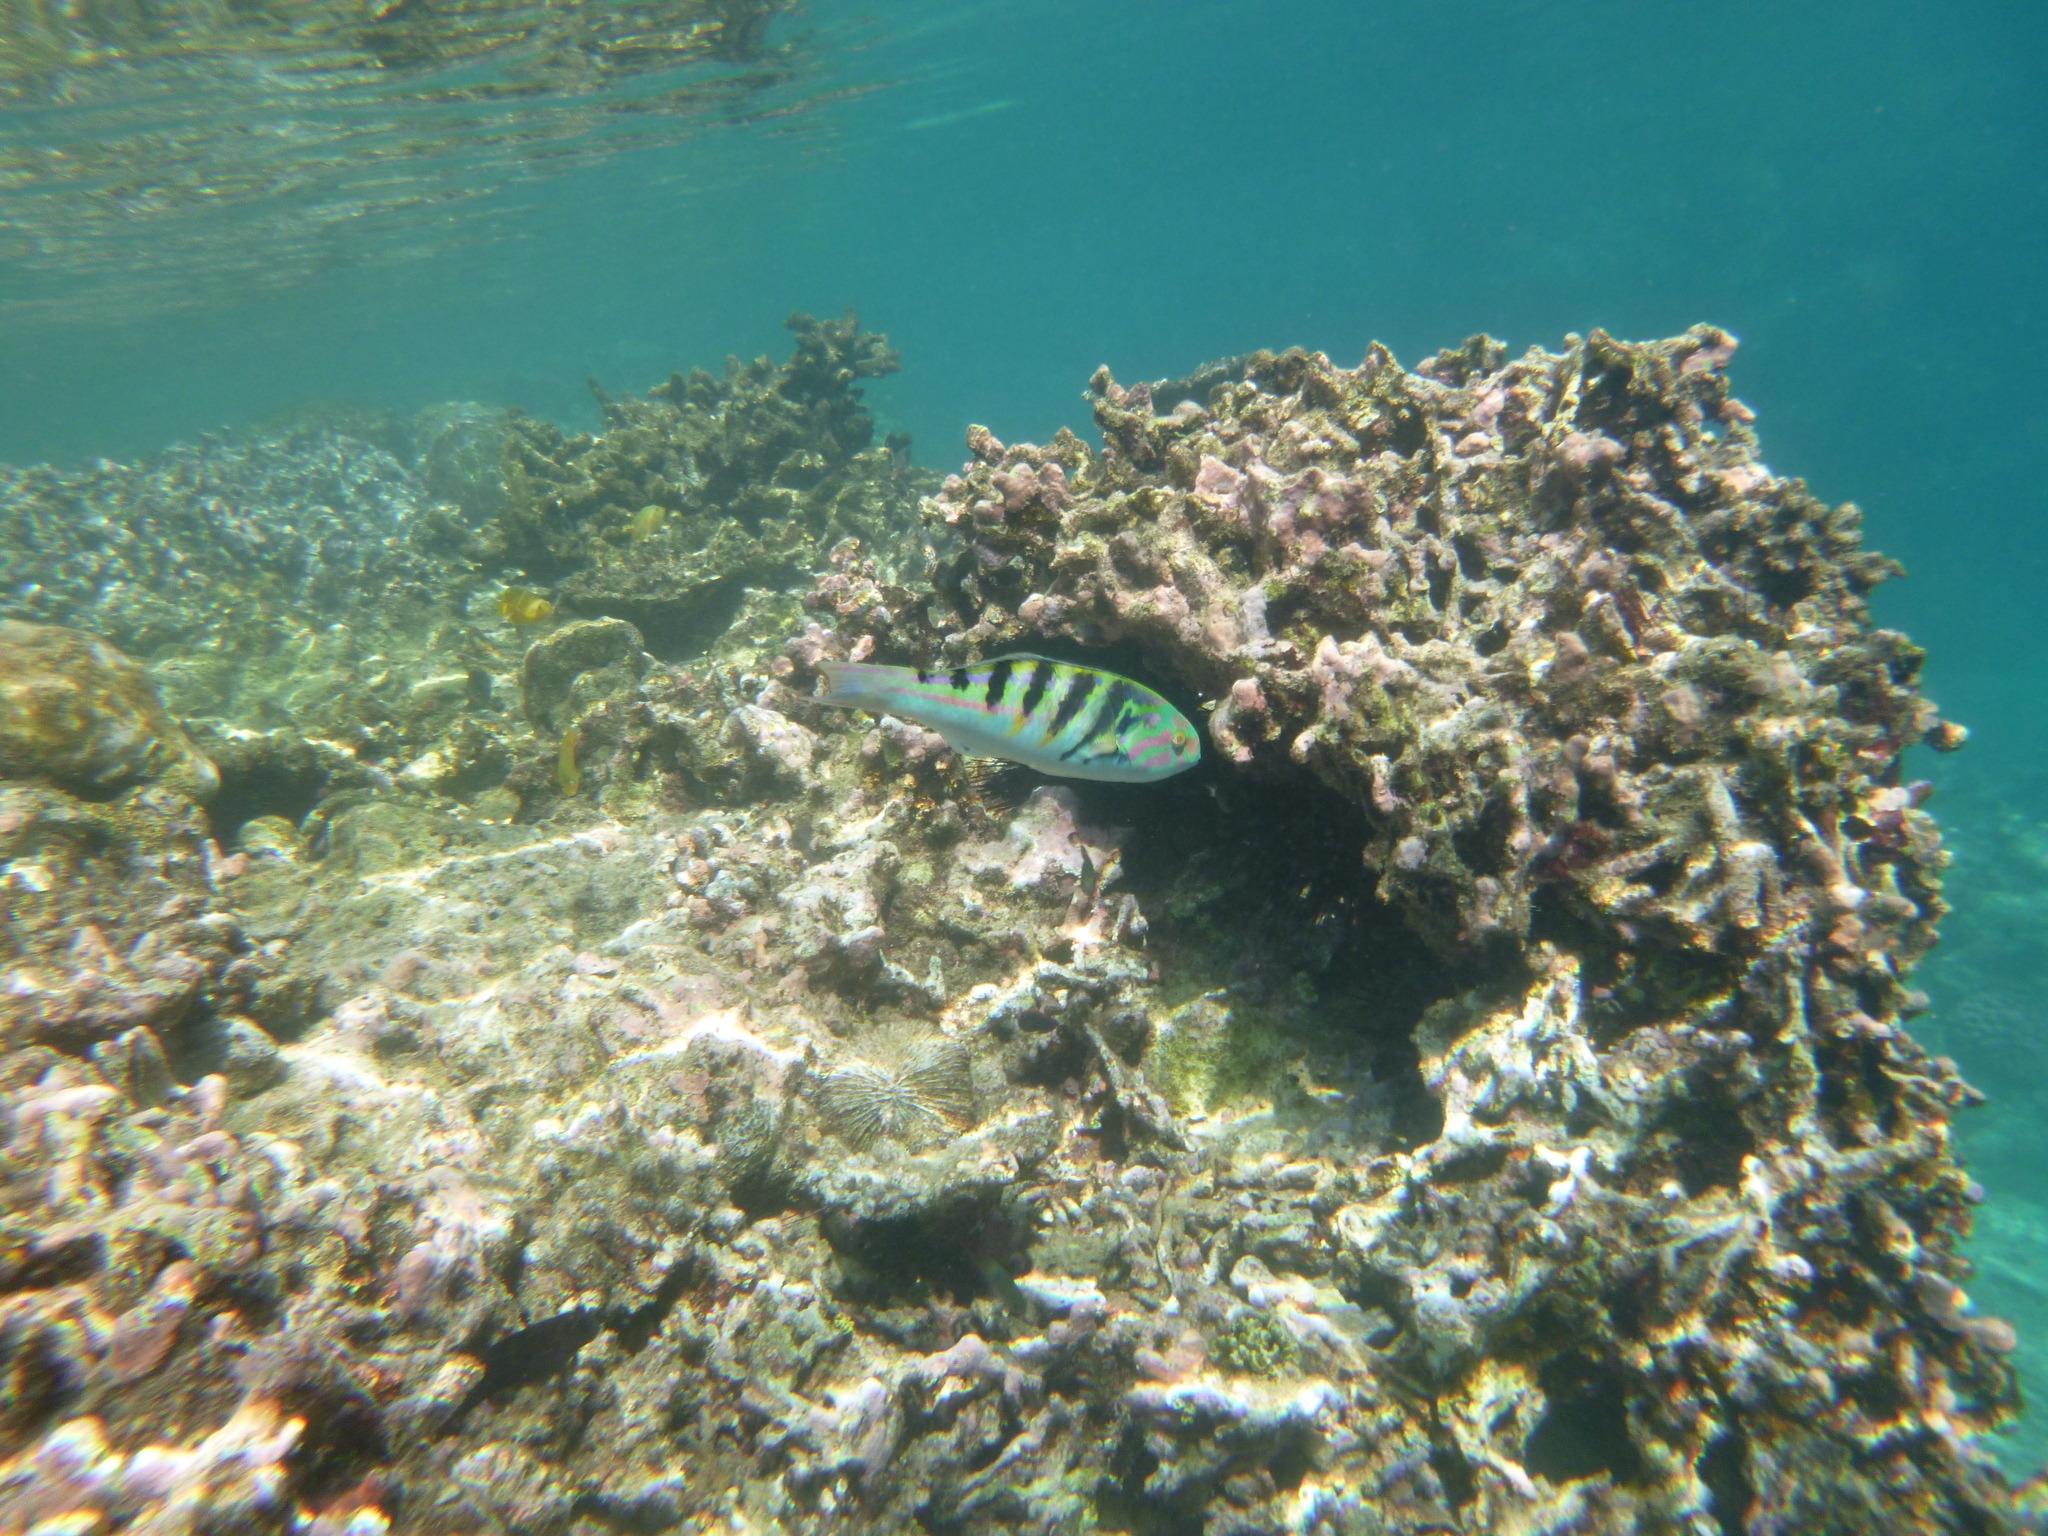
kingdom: Animalia
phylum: Chordata
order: Perciformes
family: Labridae
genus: Thalassoma
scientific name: Thalassoma hardwicke
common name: Sixbar wrasse
